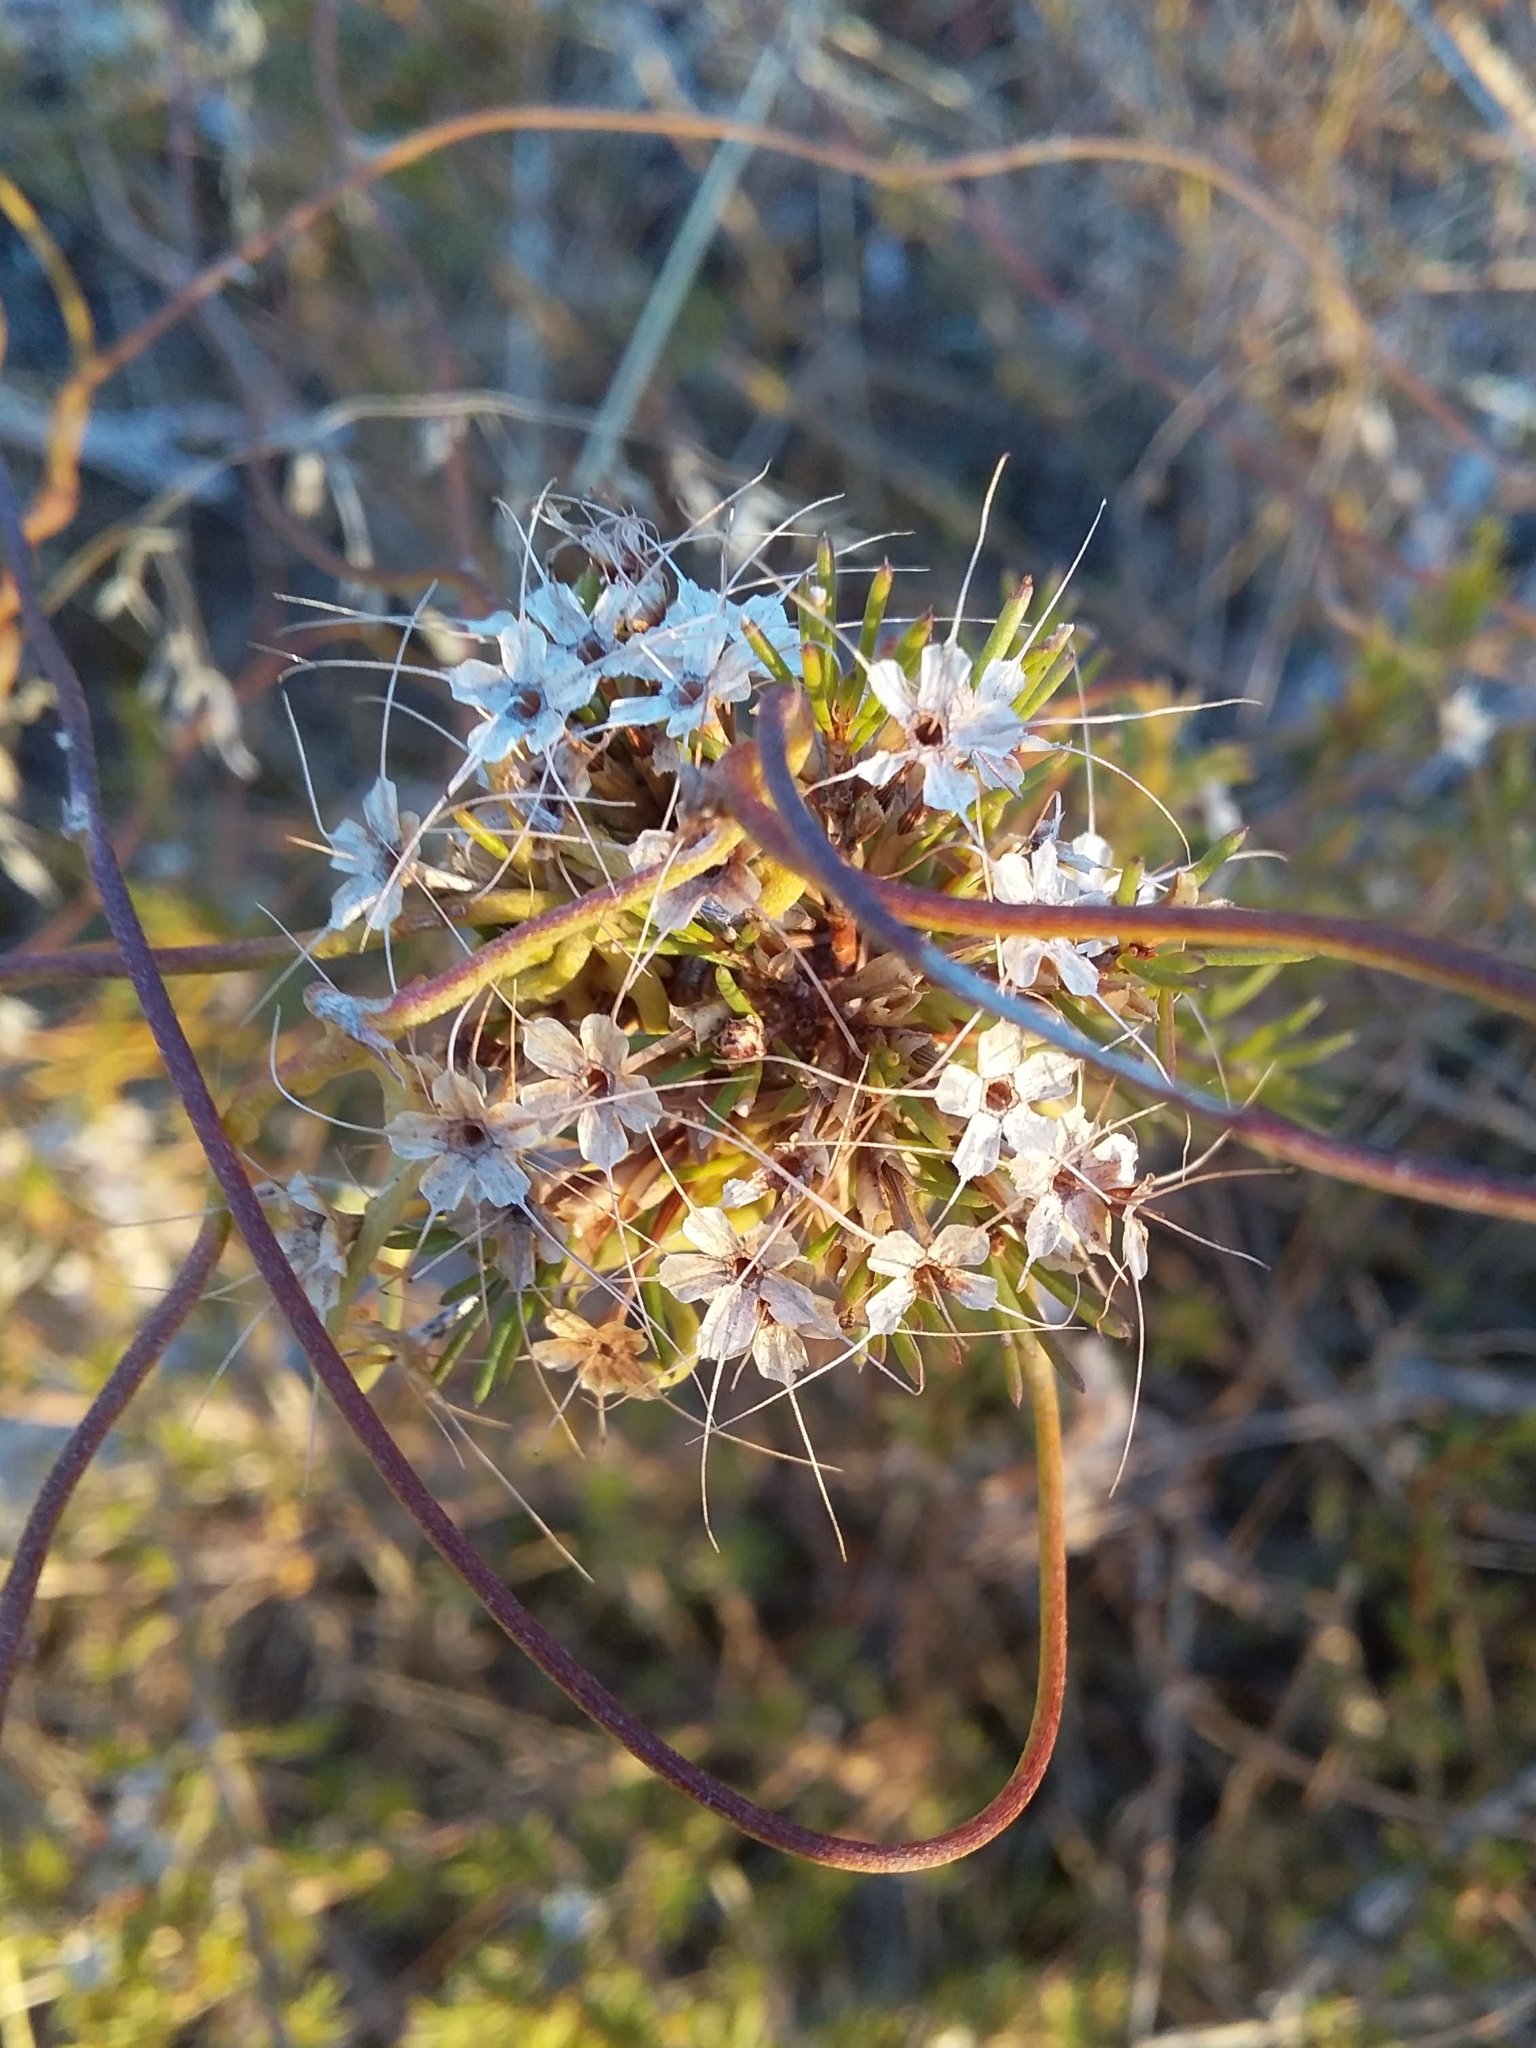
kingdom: Plantae
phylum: Tracheophyta
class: Magnoliopsida
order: Myrtales
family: Myrtaceae
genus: Calytrix
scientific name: Calytrix tetragona
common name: Common fringe myrtle
